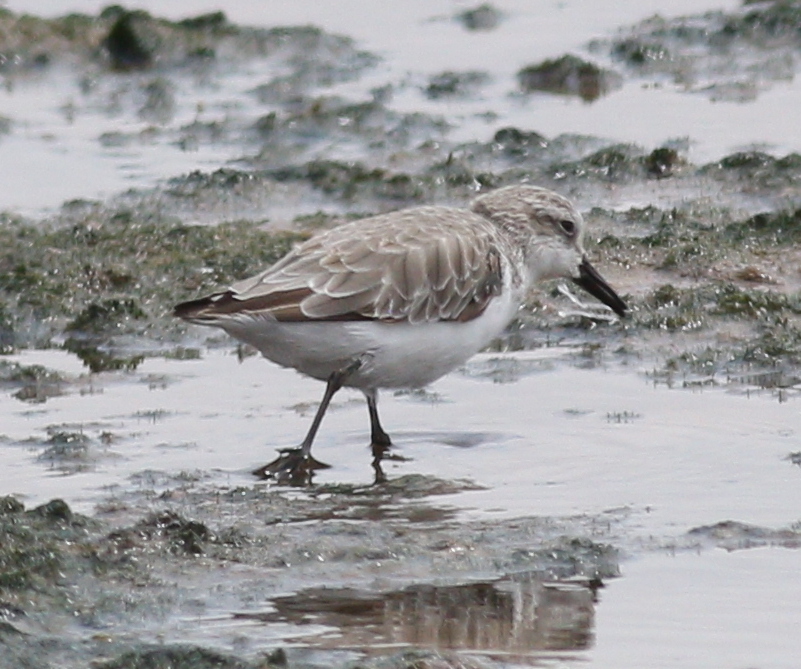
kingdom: Animalia
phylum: Chordata
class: Aves
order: Charadriiformes
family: Scolopacidae
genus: Calidris
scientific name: Calidris pusilla
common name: Semipalmated sandpiper
